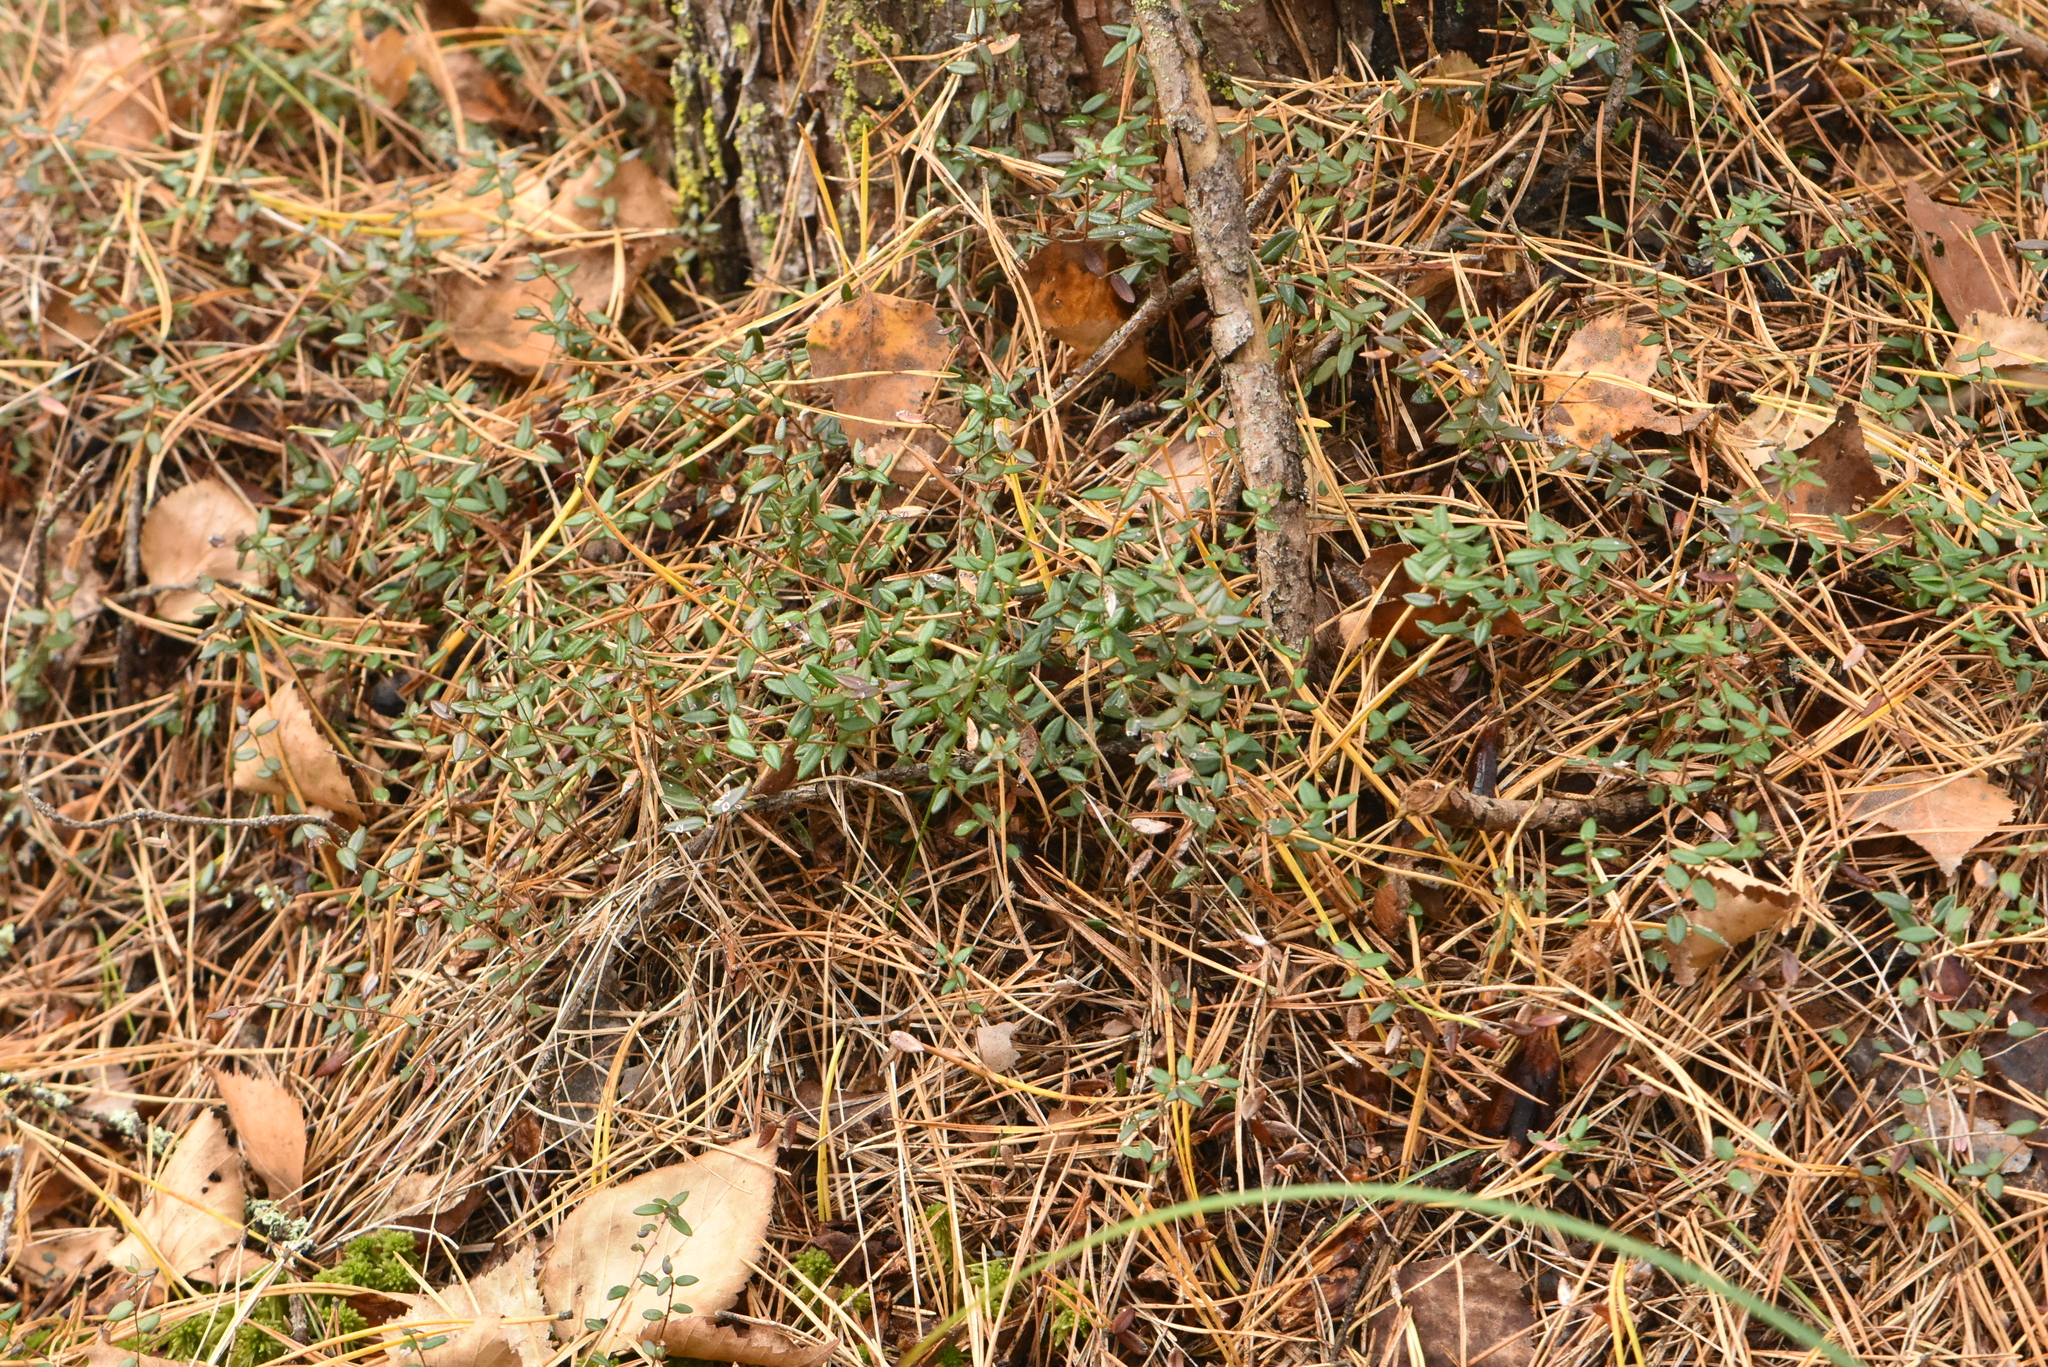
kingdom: Plantae
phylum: Tracheophyta
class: Magnoliopsida
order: Ericales
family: Ericaceae
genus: Vaccinium
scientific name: Vaccinium oxycoccos
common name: Cranberry
